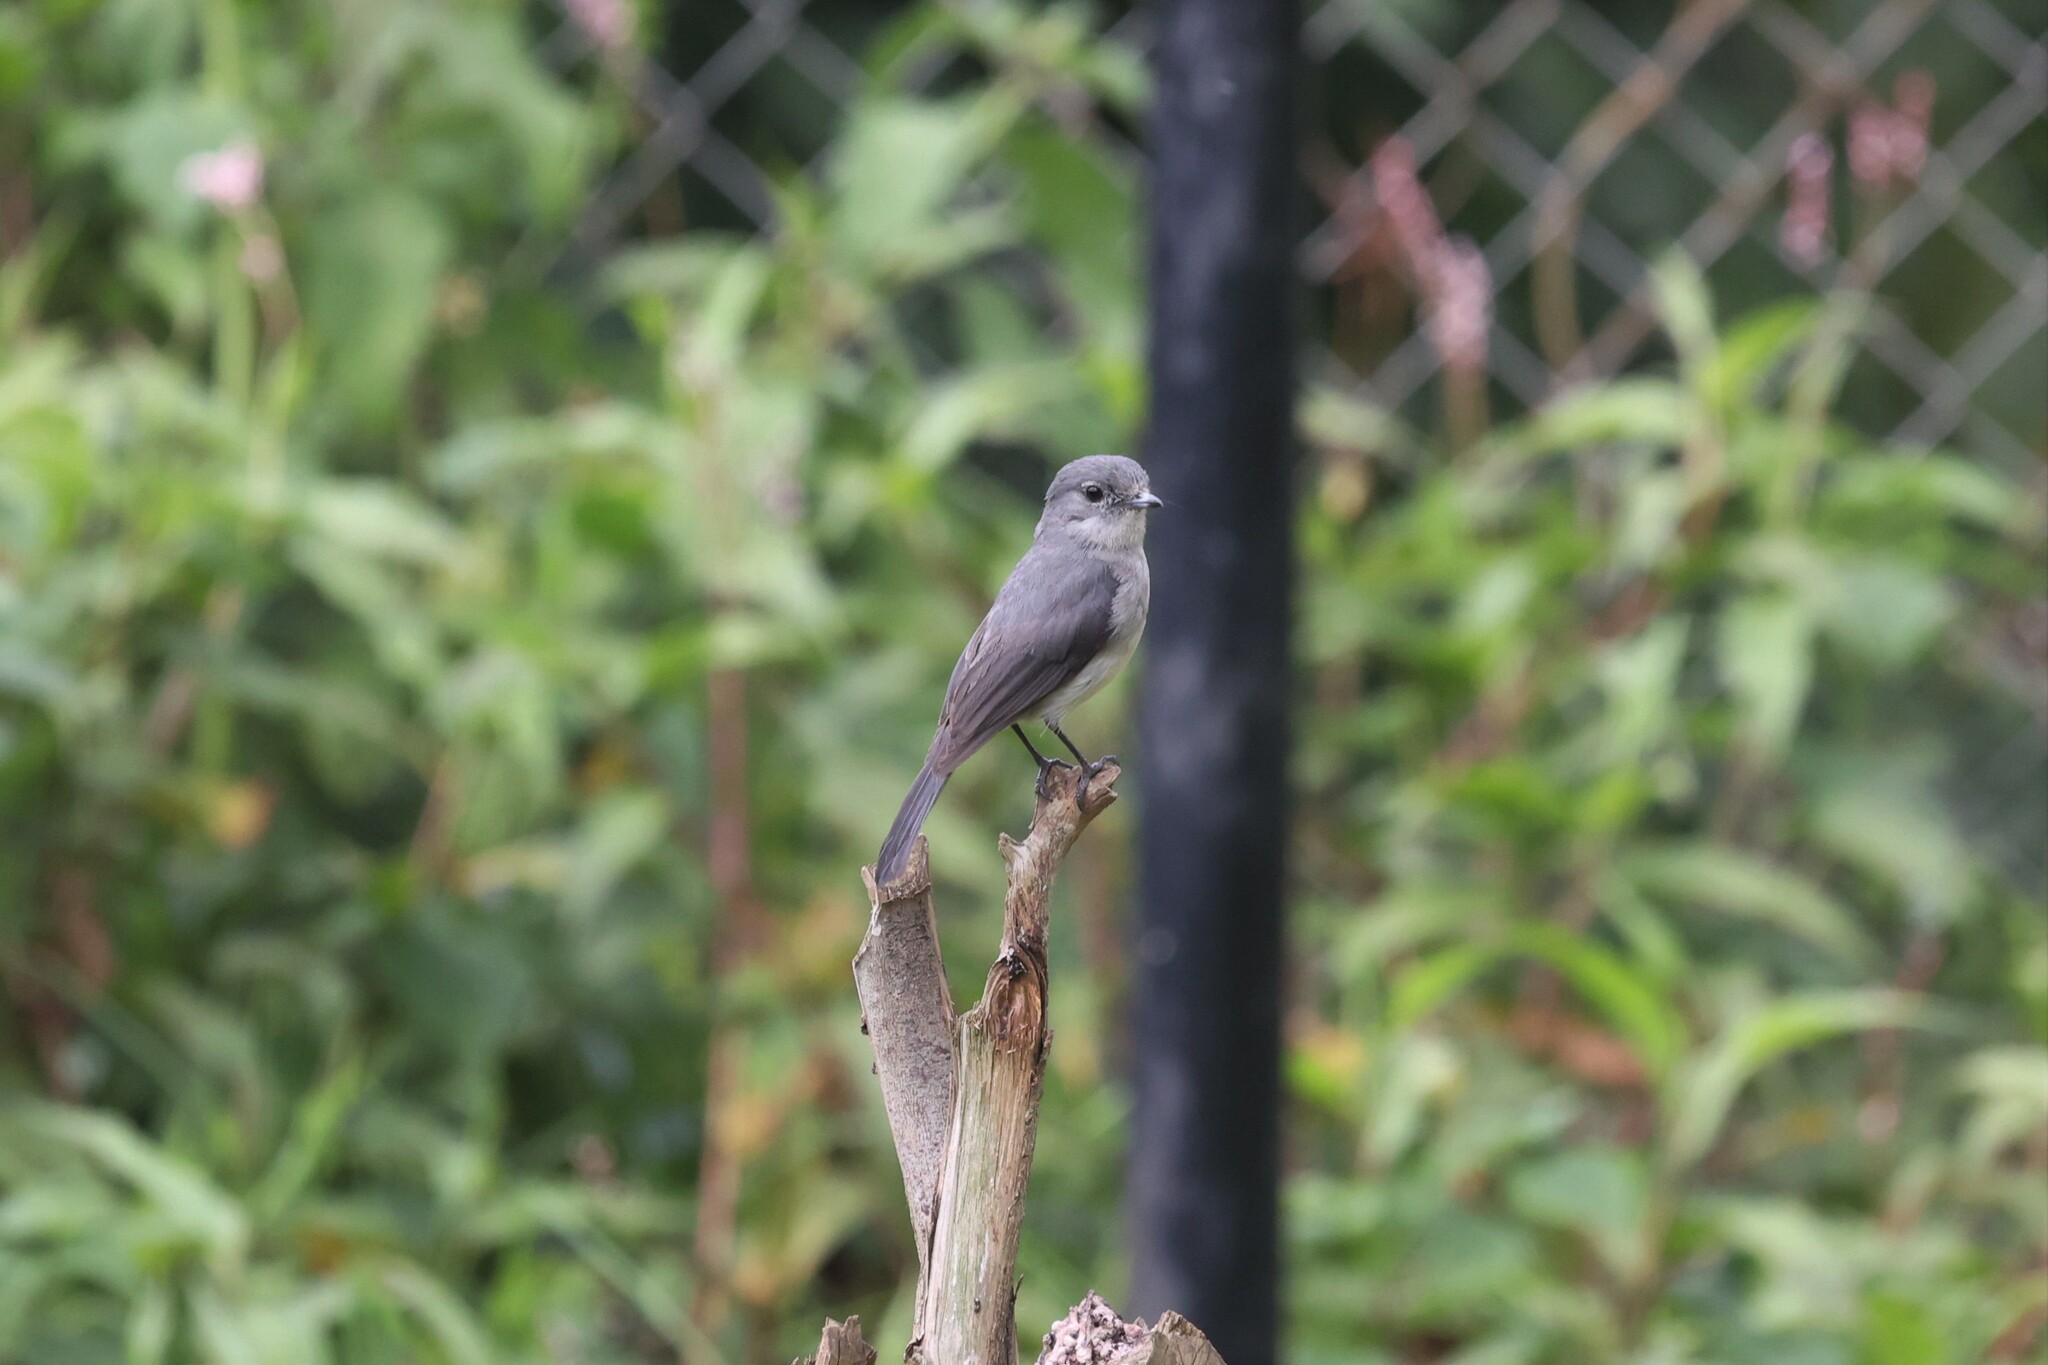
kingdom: Animalia
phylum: Chordata
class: Aves
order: Passeriformes
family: Muscicapidae
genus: Dioptrornis
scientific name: Dioptrornis fischeri
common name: White-eyed slaty flycatcher
